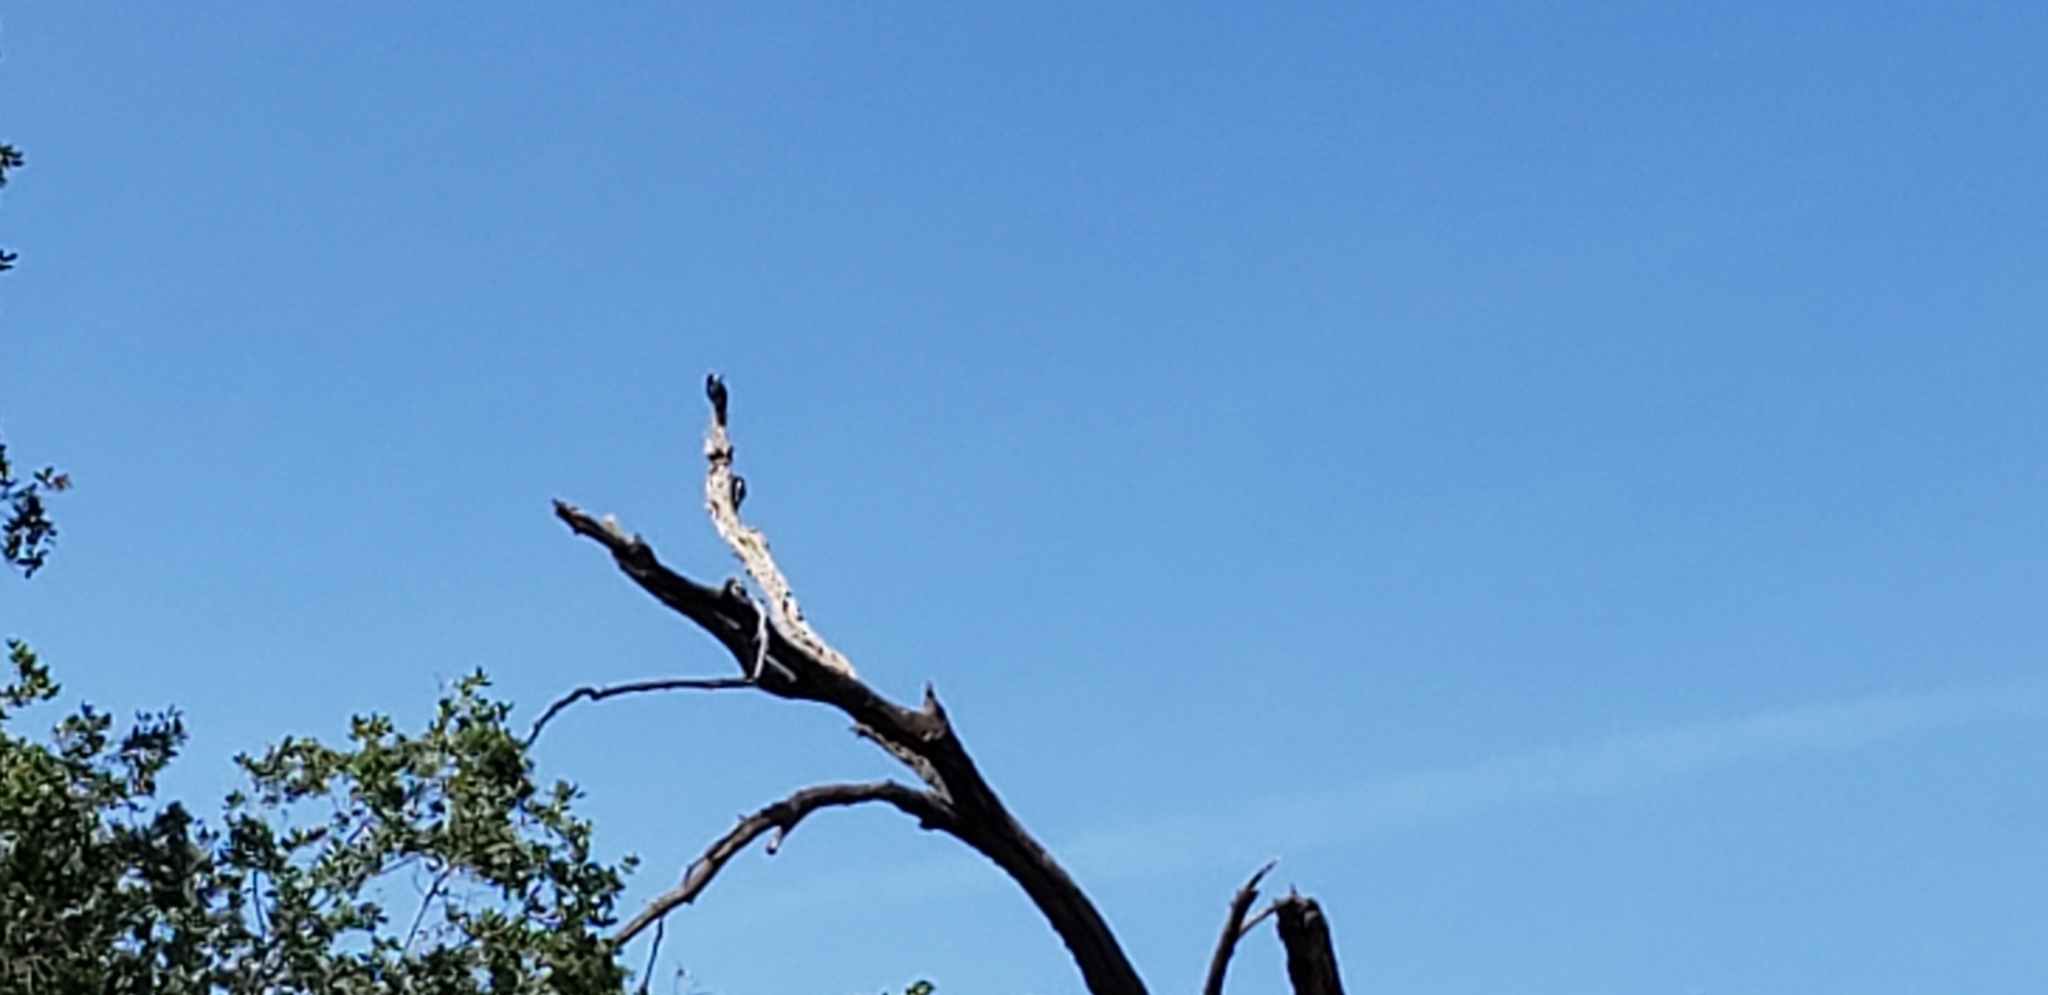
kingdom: Animalia
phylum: Chordata
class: Aves
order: Piciformes
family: Picidae
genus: Melanerpes
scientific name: Melanerpes formicivorus
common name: Acorn woodpecker
